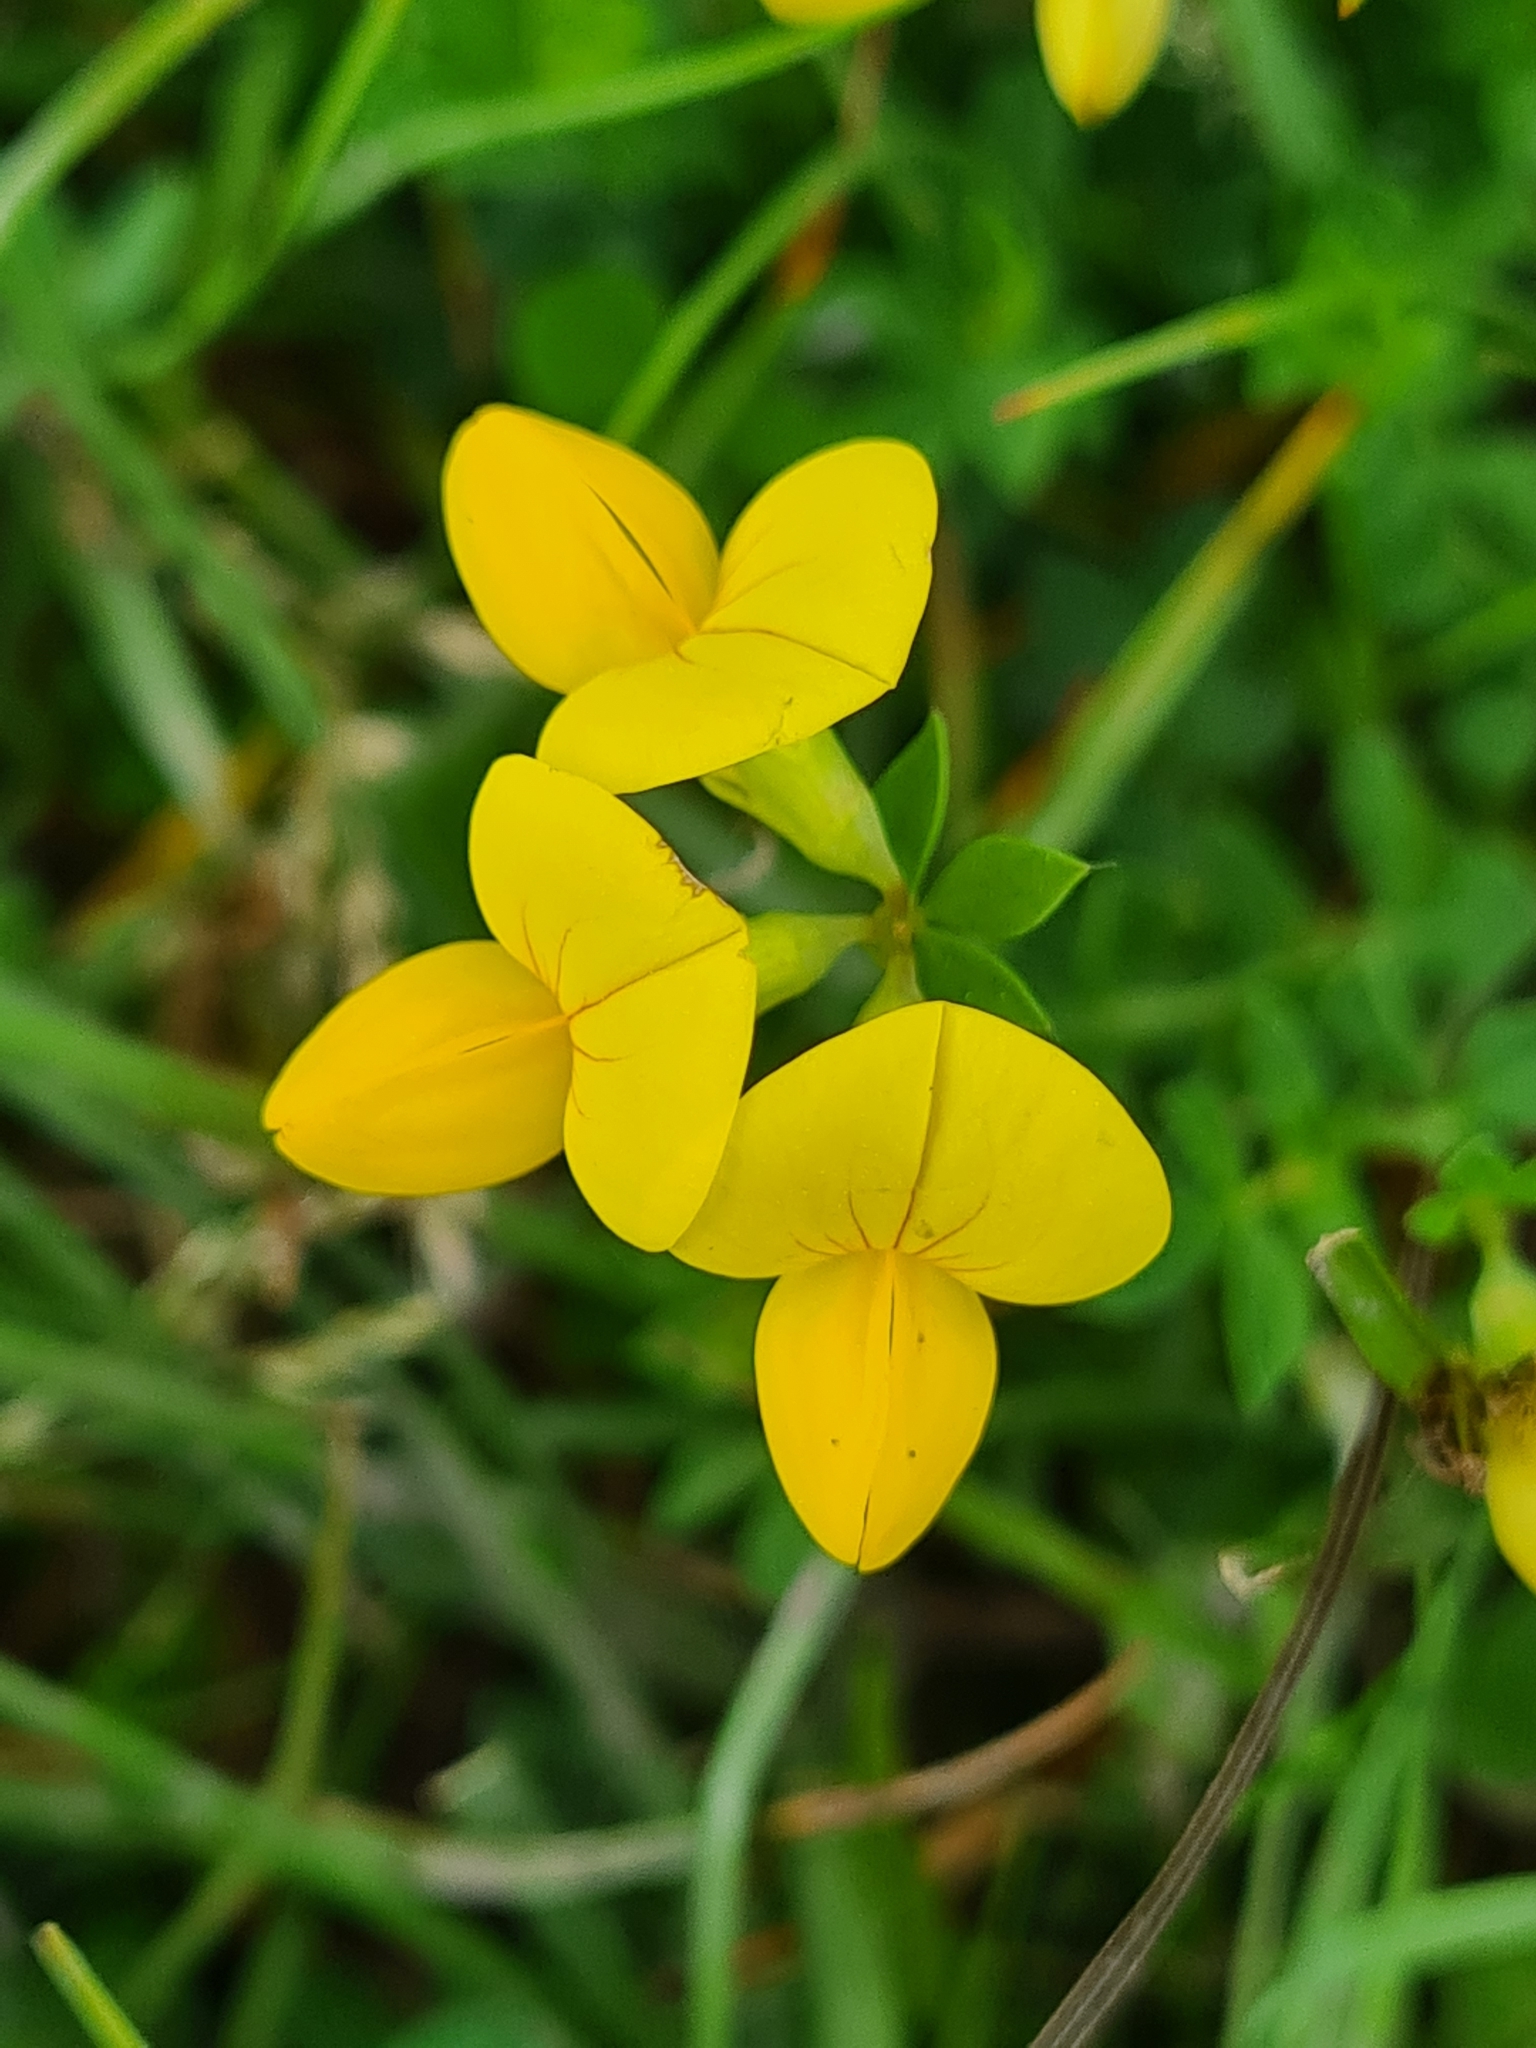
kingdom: Plantae
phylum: Tracheophyta
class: Magnoliopsida
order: Fabales
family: Fabaceae
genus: Lotus
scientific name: Lotus corniculatus
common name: Common bird's-foot-trefoil
